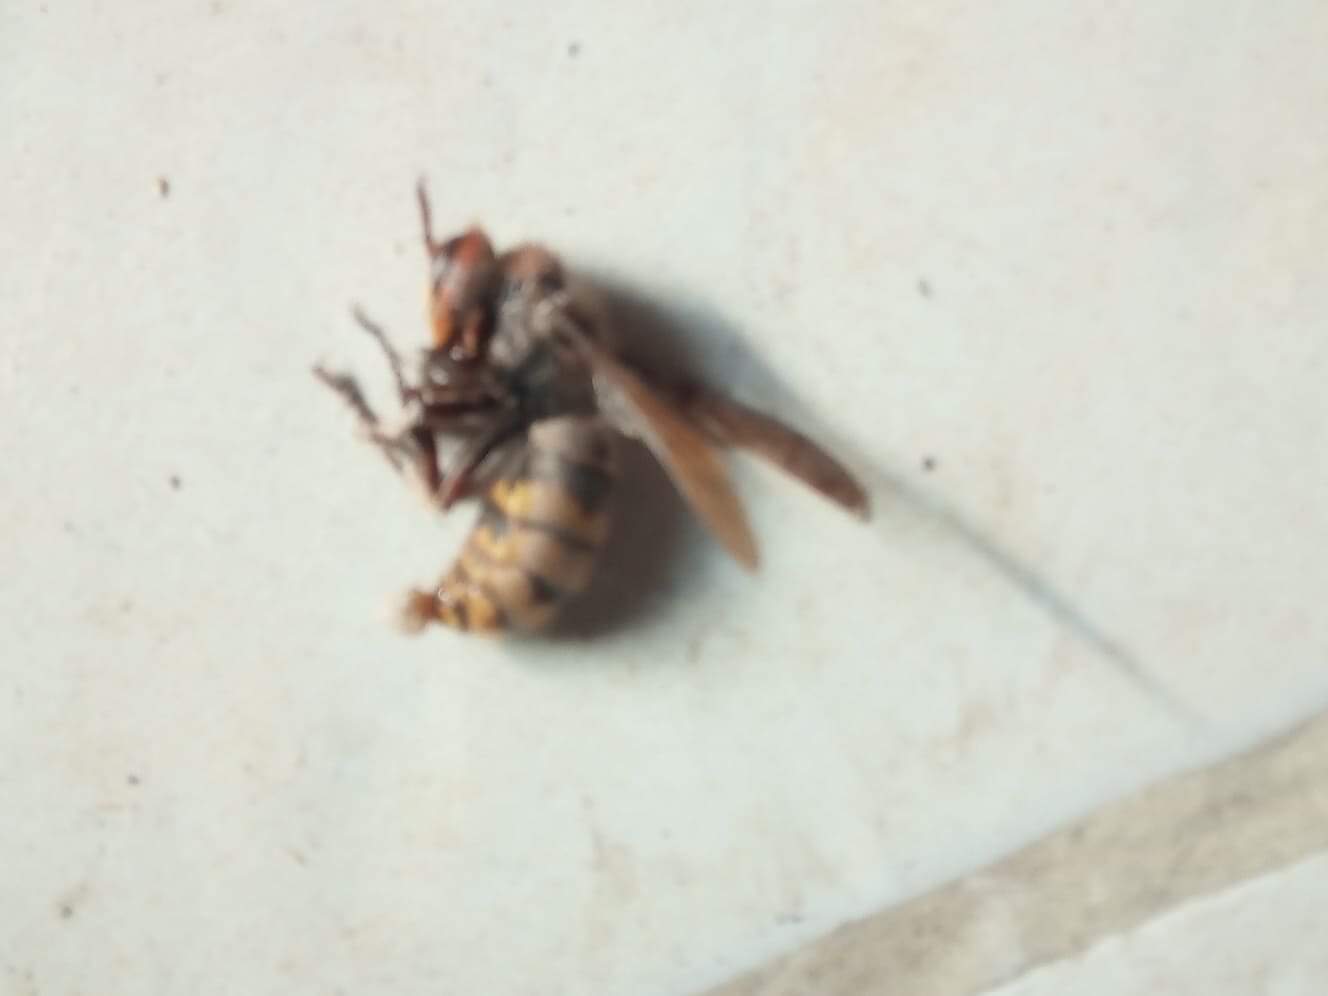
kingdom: Animalia
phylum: Arthropoda
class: Insecta
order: Hymenoptera
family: Vespidae
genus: Vespa
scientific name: Vespa crabro
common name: Hornet
